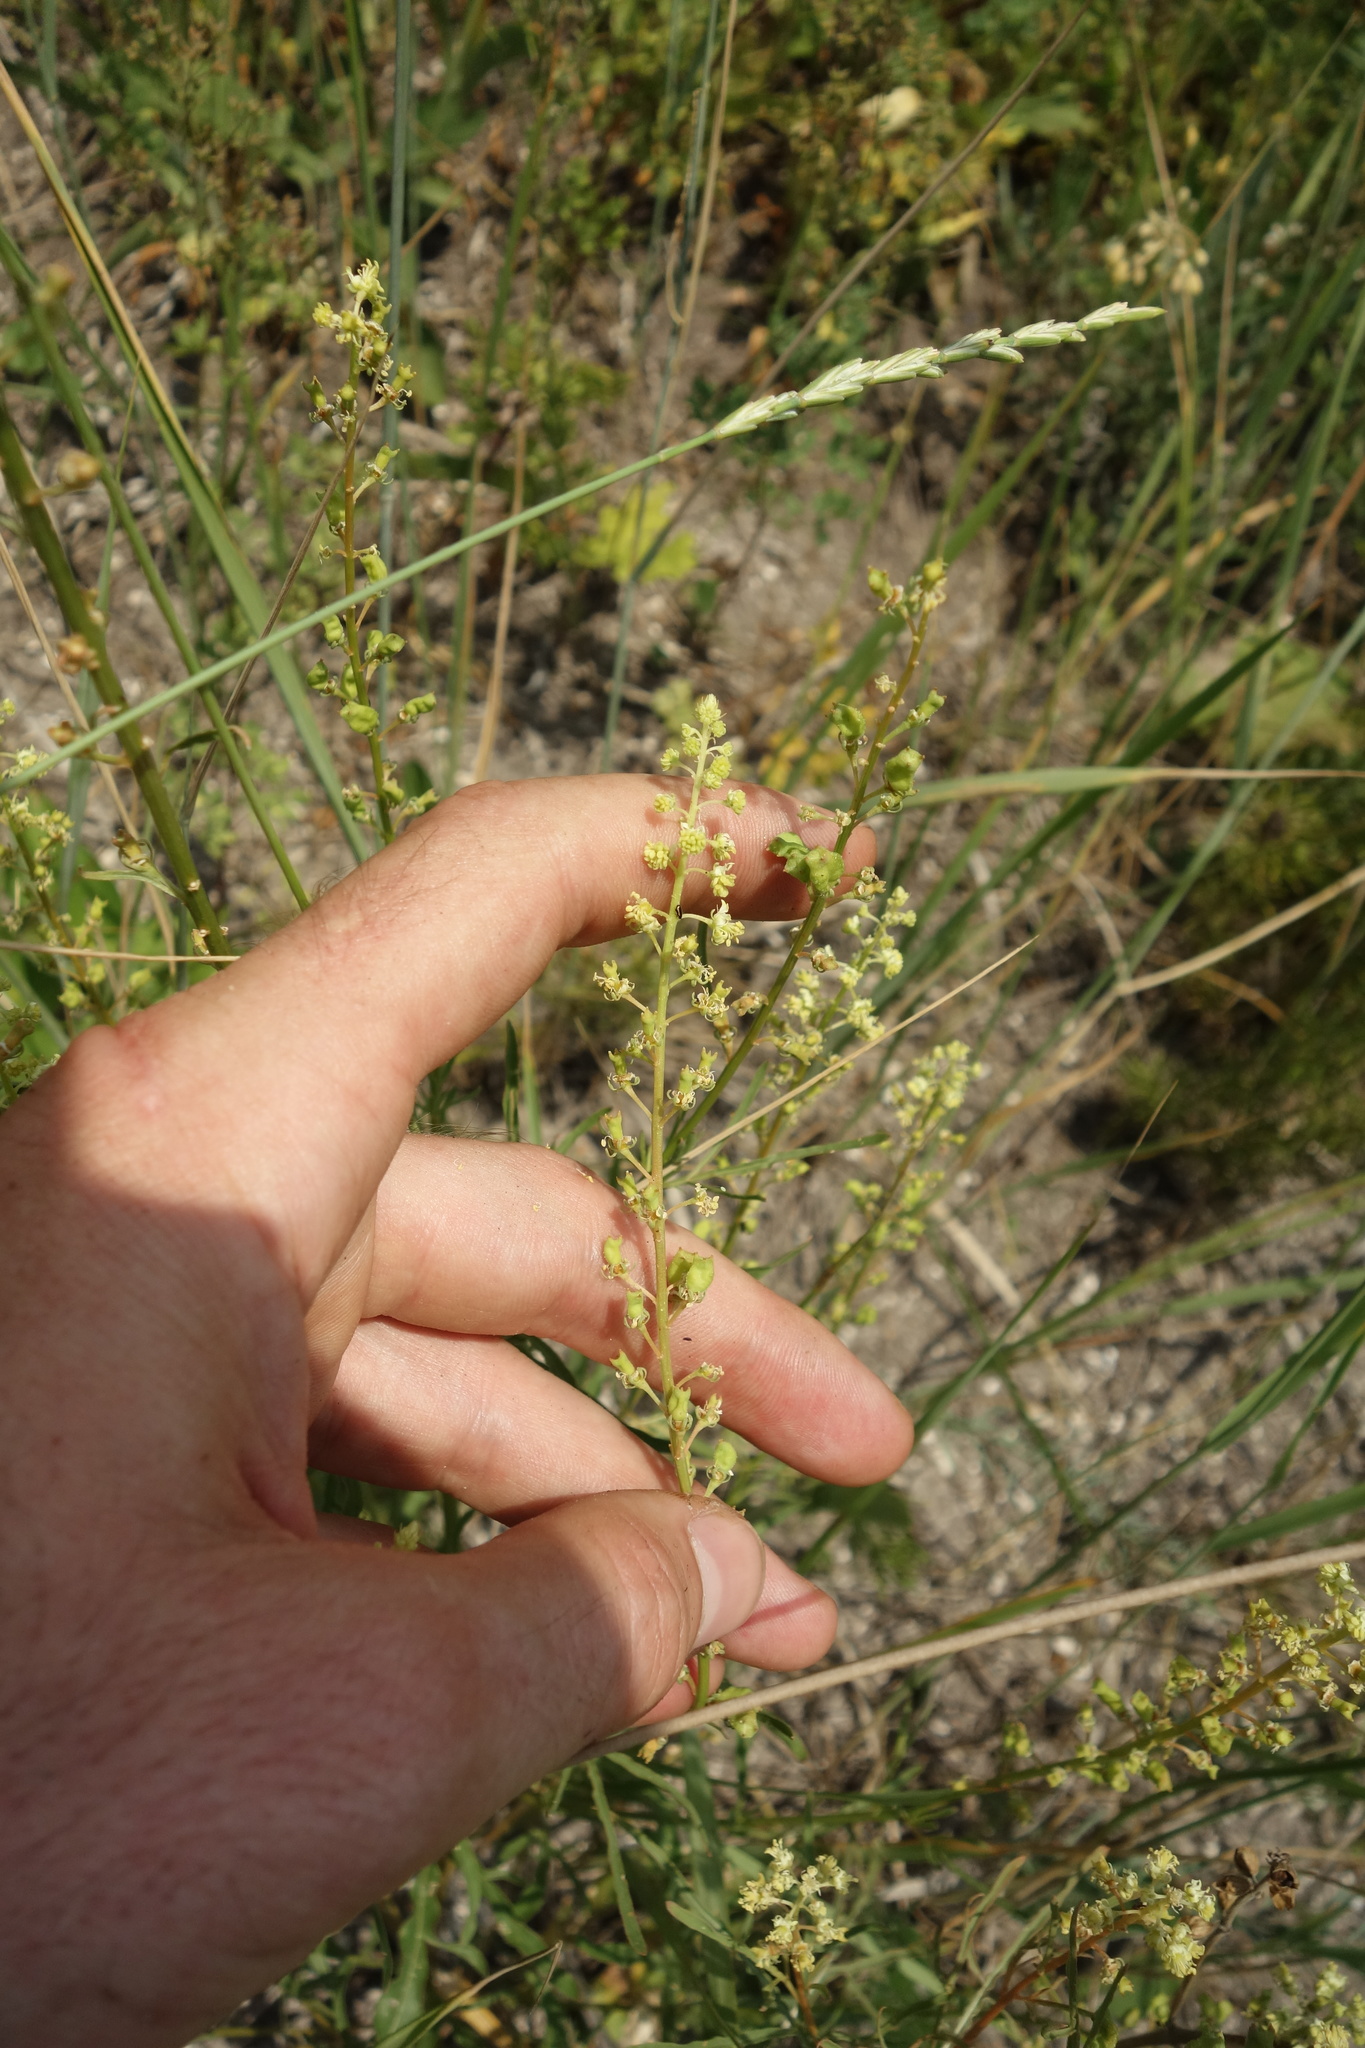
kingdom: Plantae
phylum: Tracheophyta
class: Magnoliopsida
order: Brassicales
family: Resedaceae
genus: Reseda
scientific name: Reseda lutea
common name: Wild mignonette
